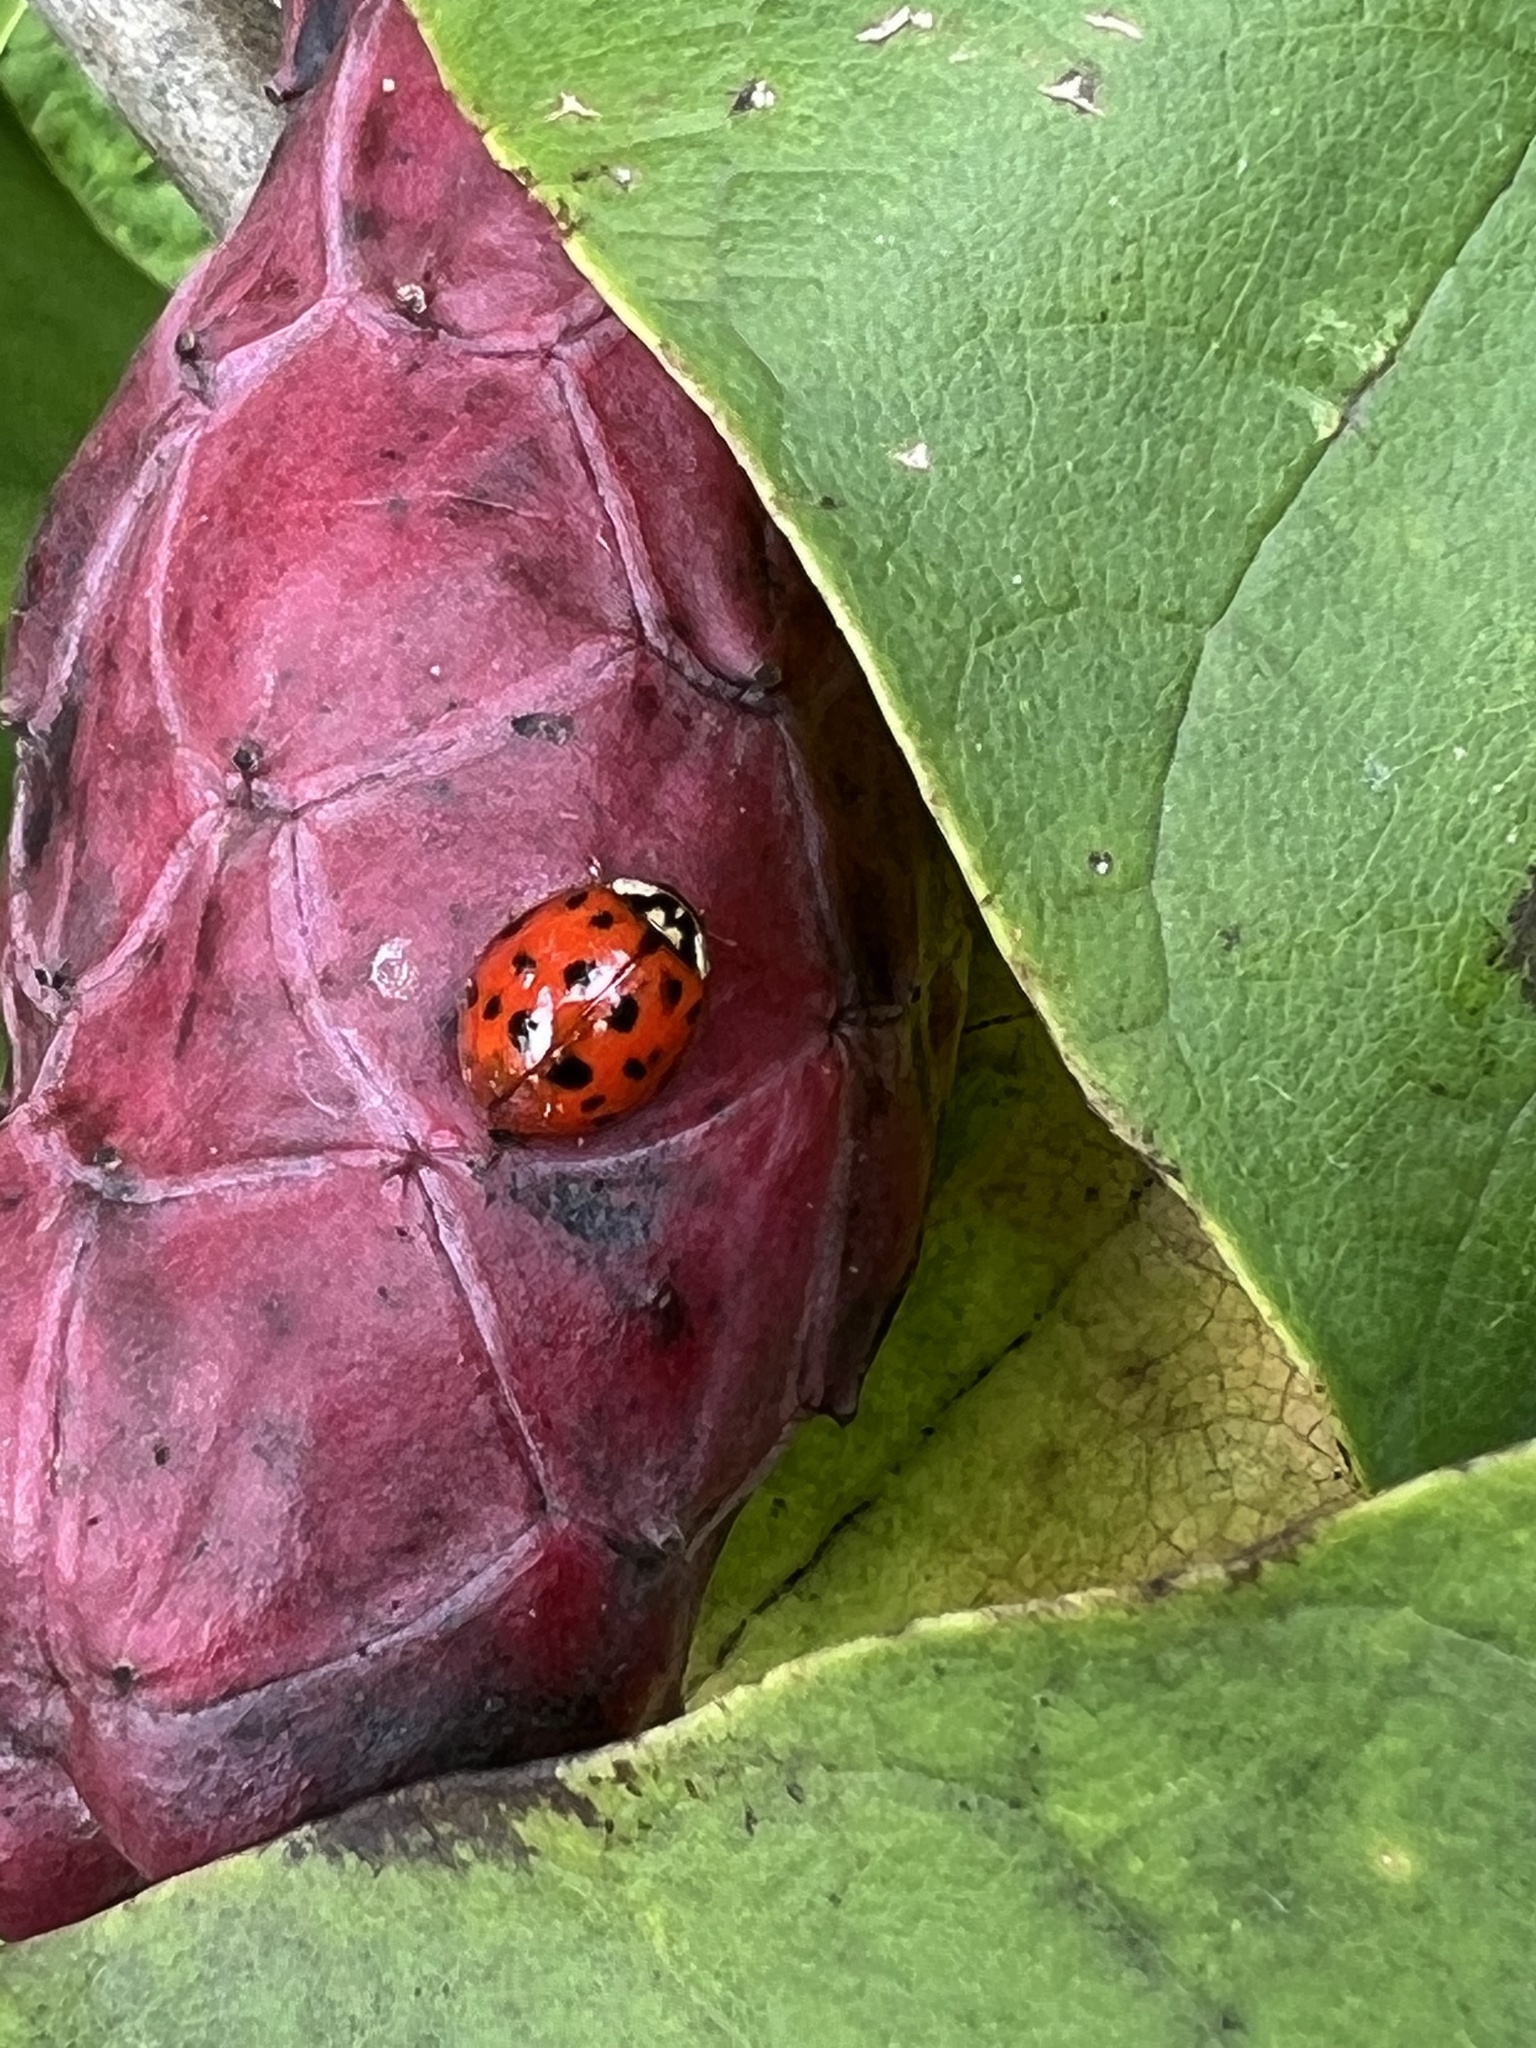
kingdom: Animalia
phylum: Arthropoda
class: Insecta
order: Coleoptera
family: Coccinellidae
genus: Harmonia
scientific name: Harmonia axyridis
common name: Harlequin ladybird
